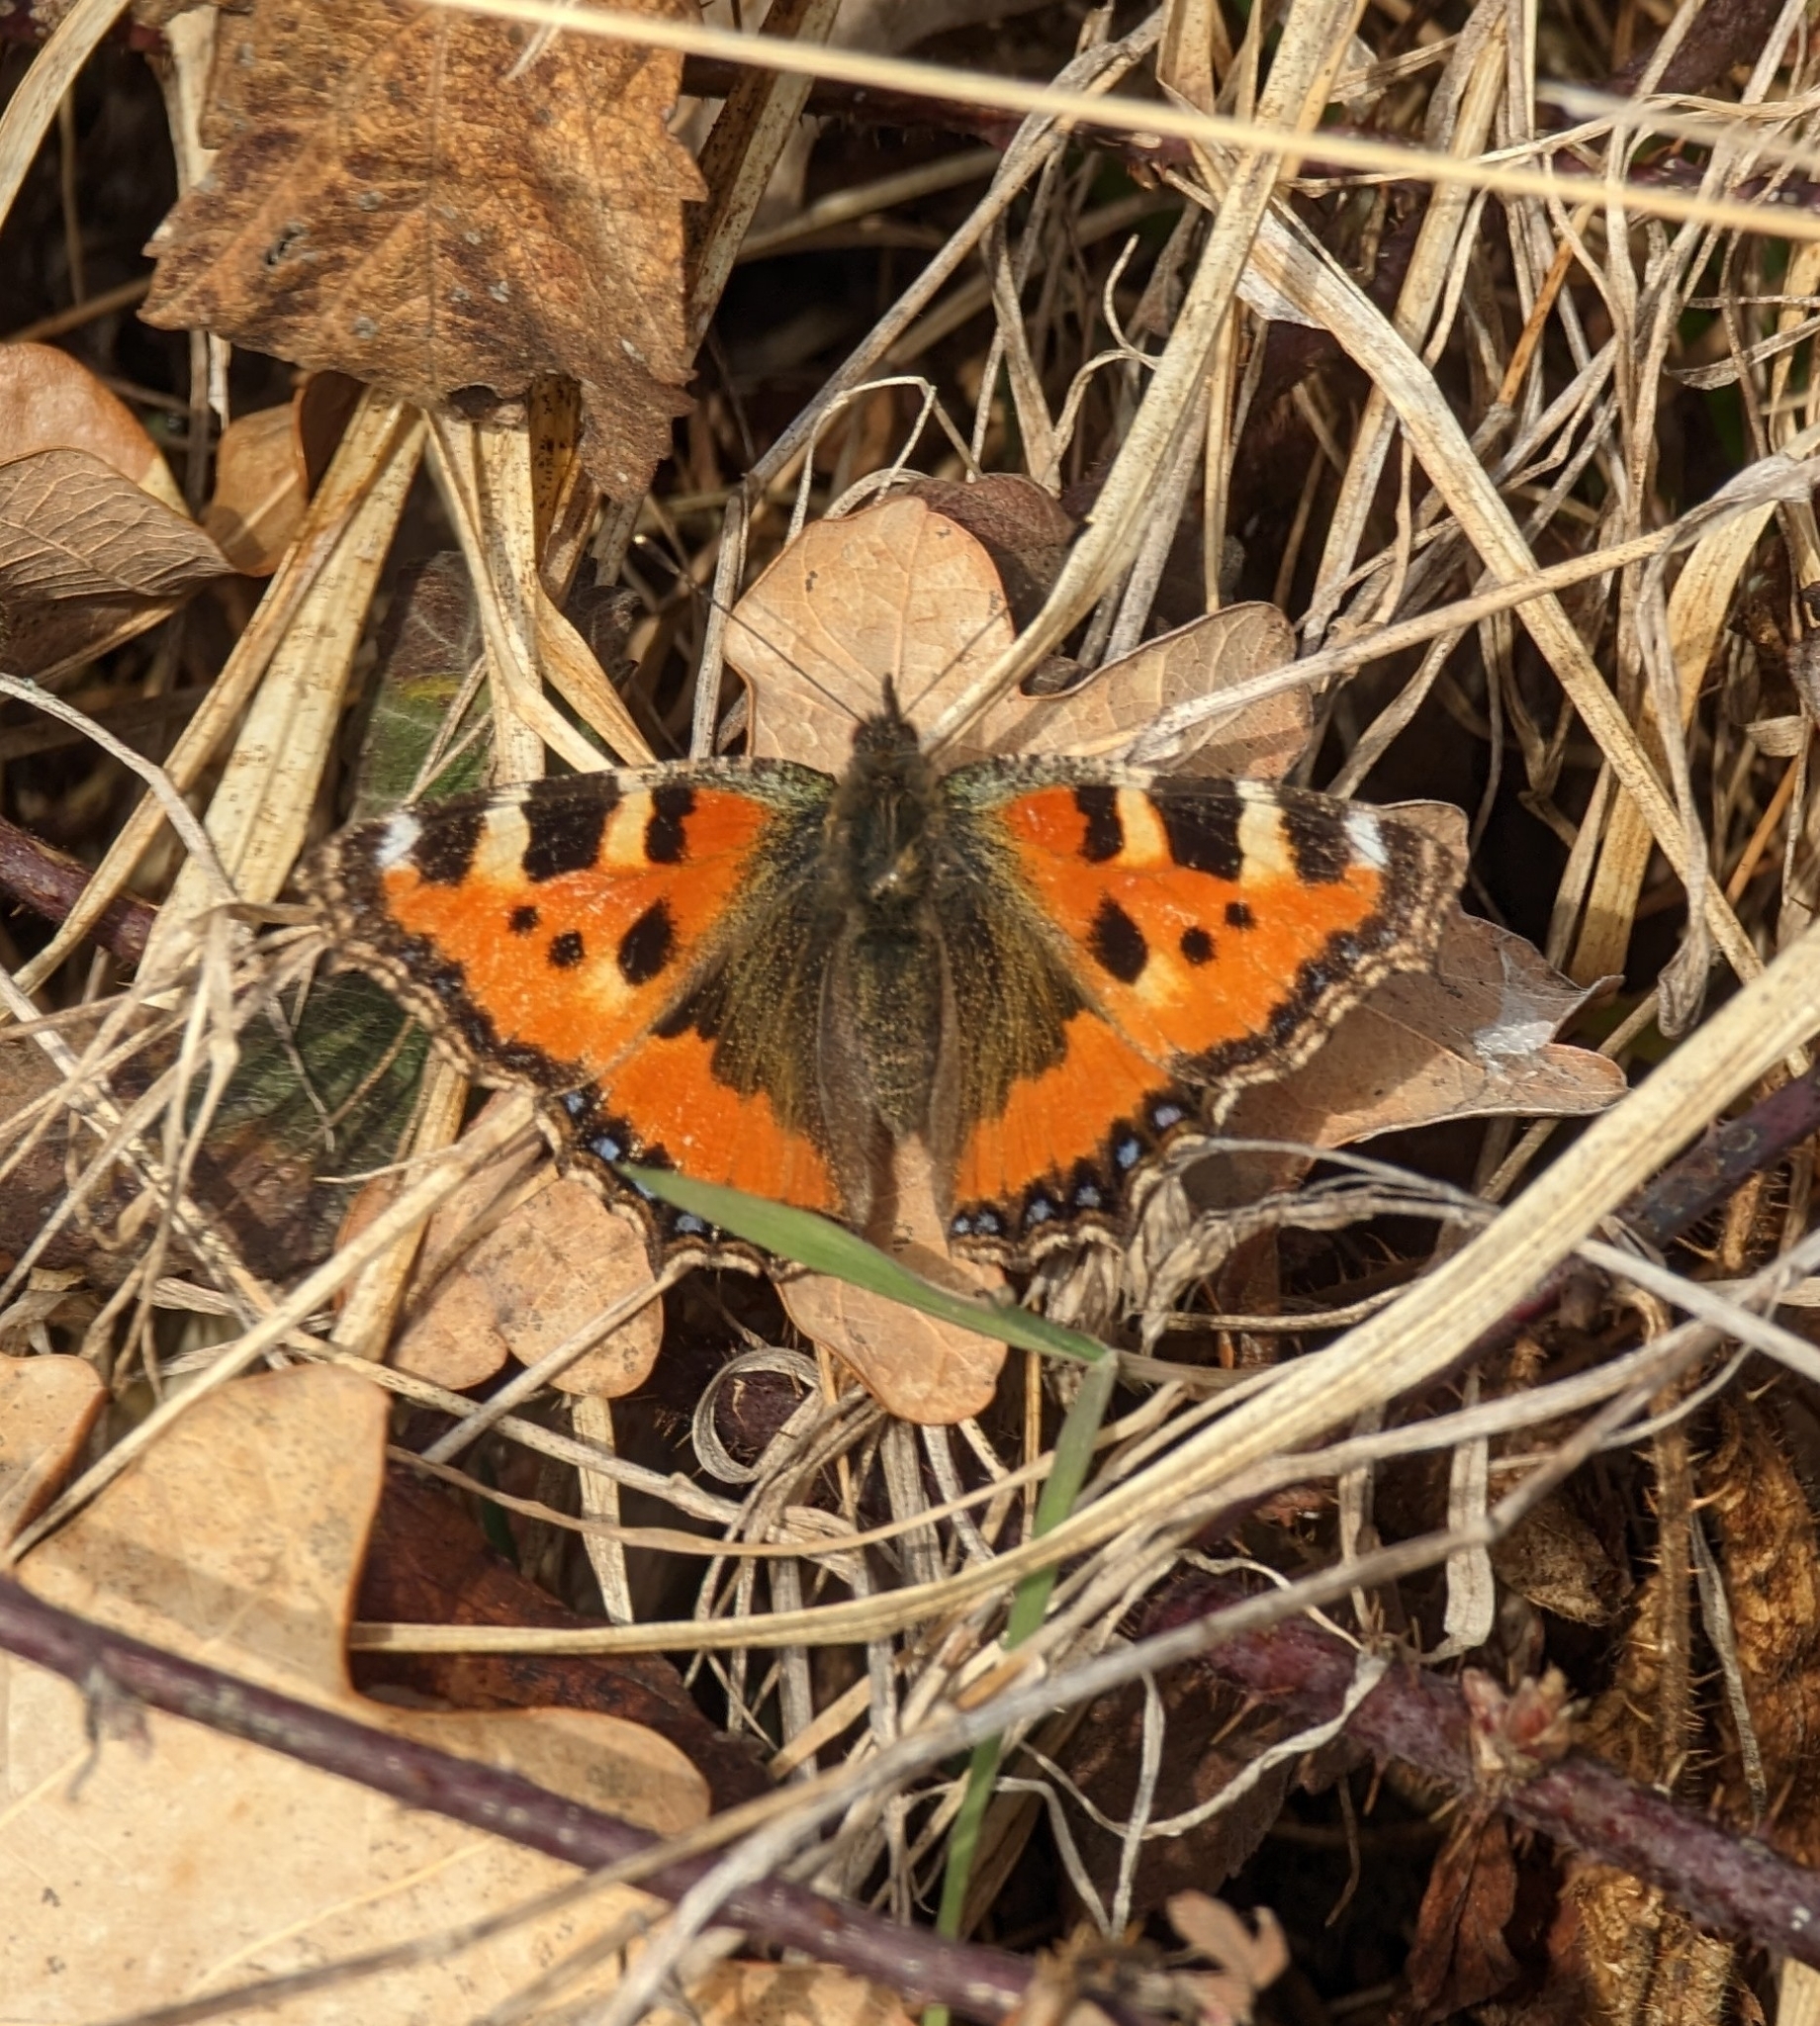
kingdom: Animalia
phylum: Arthropoda
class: Insecta
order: Lepidoptera
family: Nymphalidae
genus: Aglais
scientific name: Aglais urticae
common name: Small tortoiseshell
